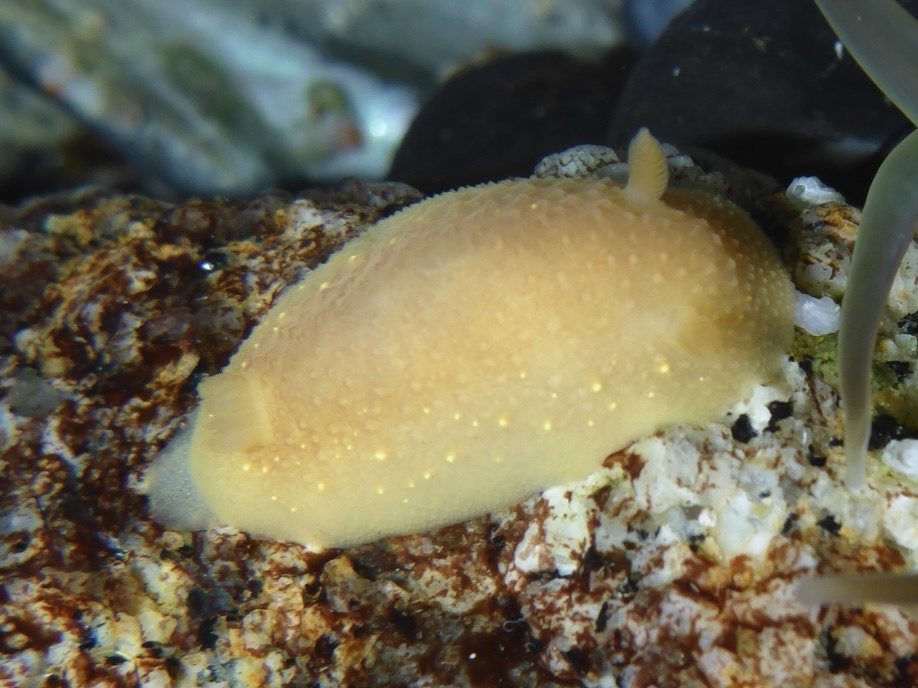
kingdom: Animalia
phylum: Mollusca
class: Gastropoda
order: Nudibranchia
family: Cadlinidae
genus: Cadlina
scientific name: Cadlina modesta
